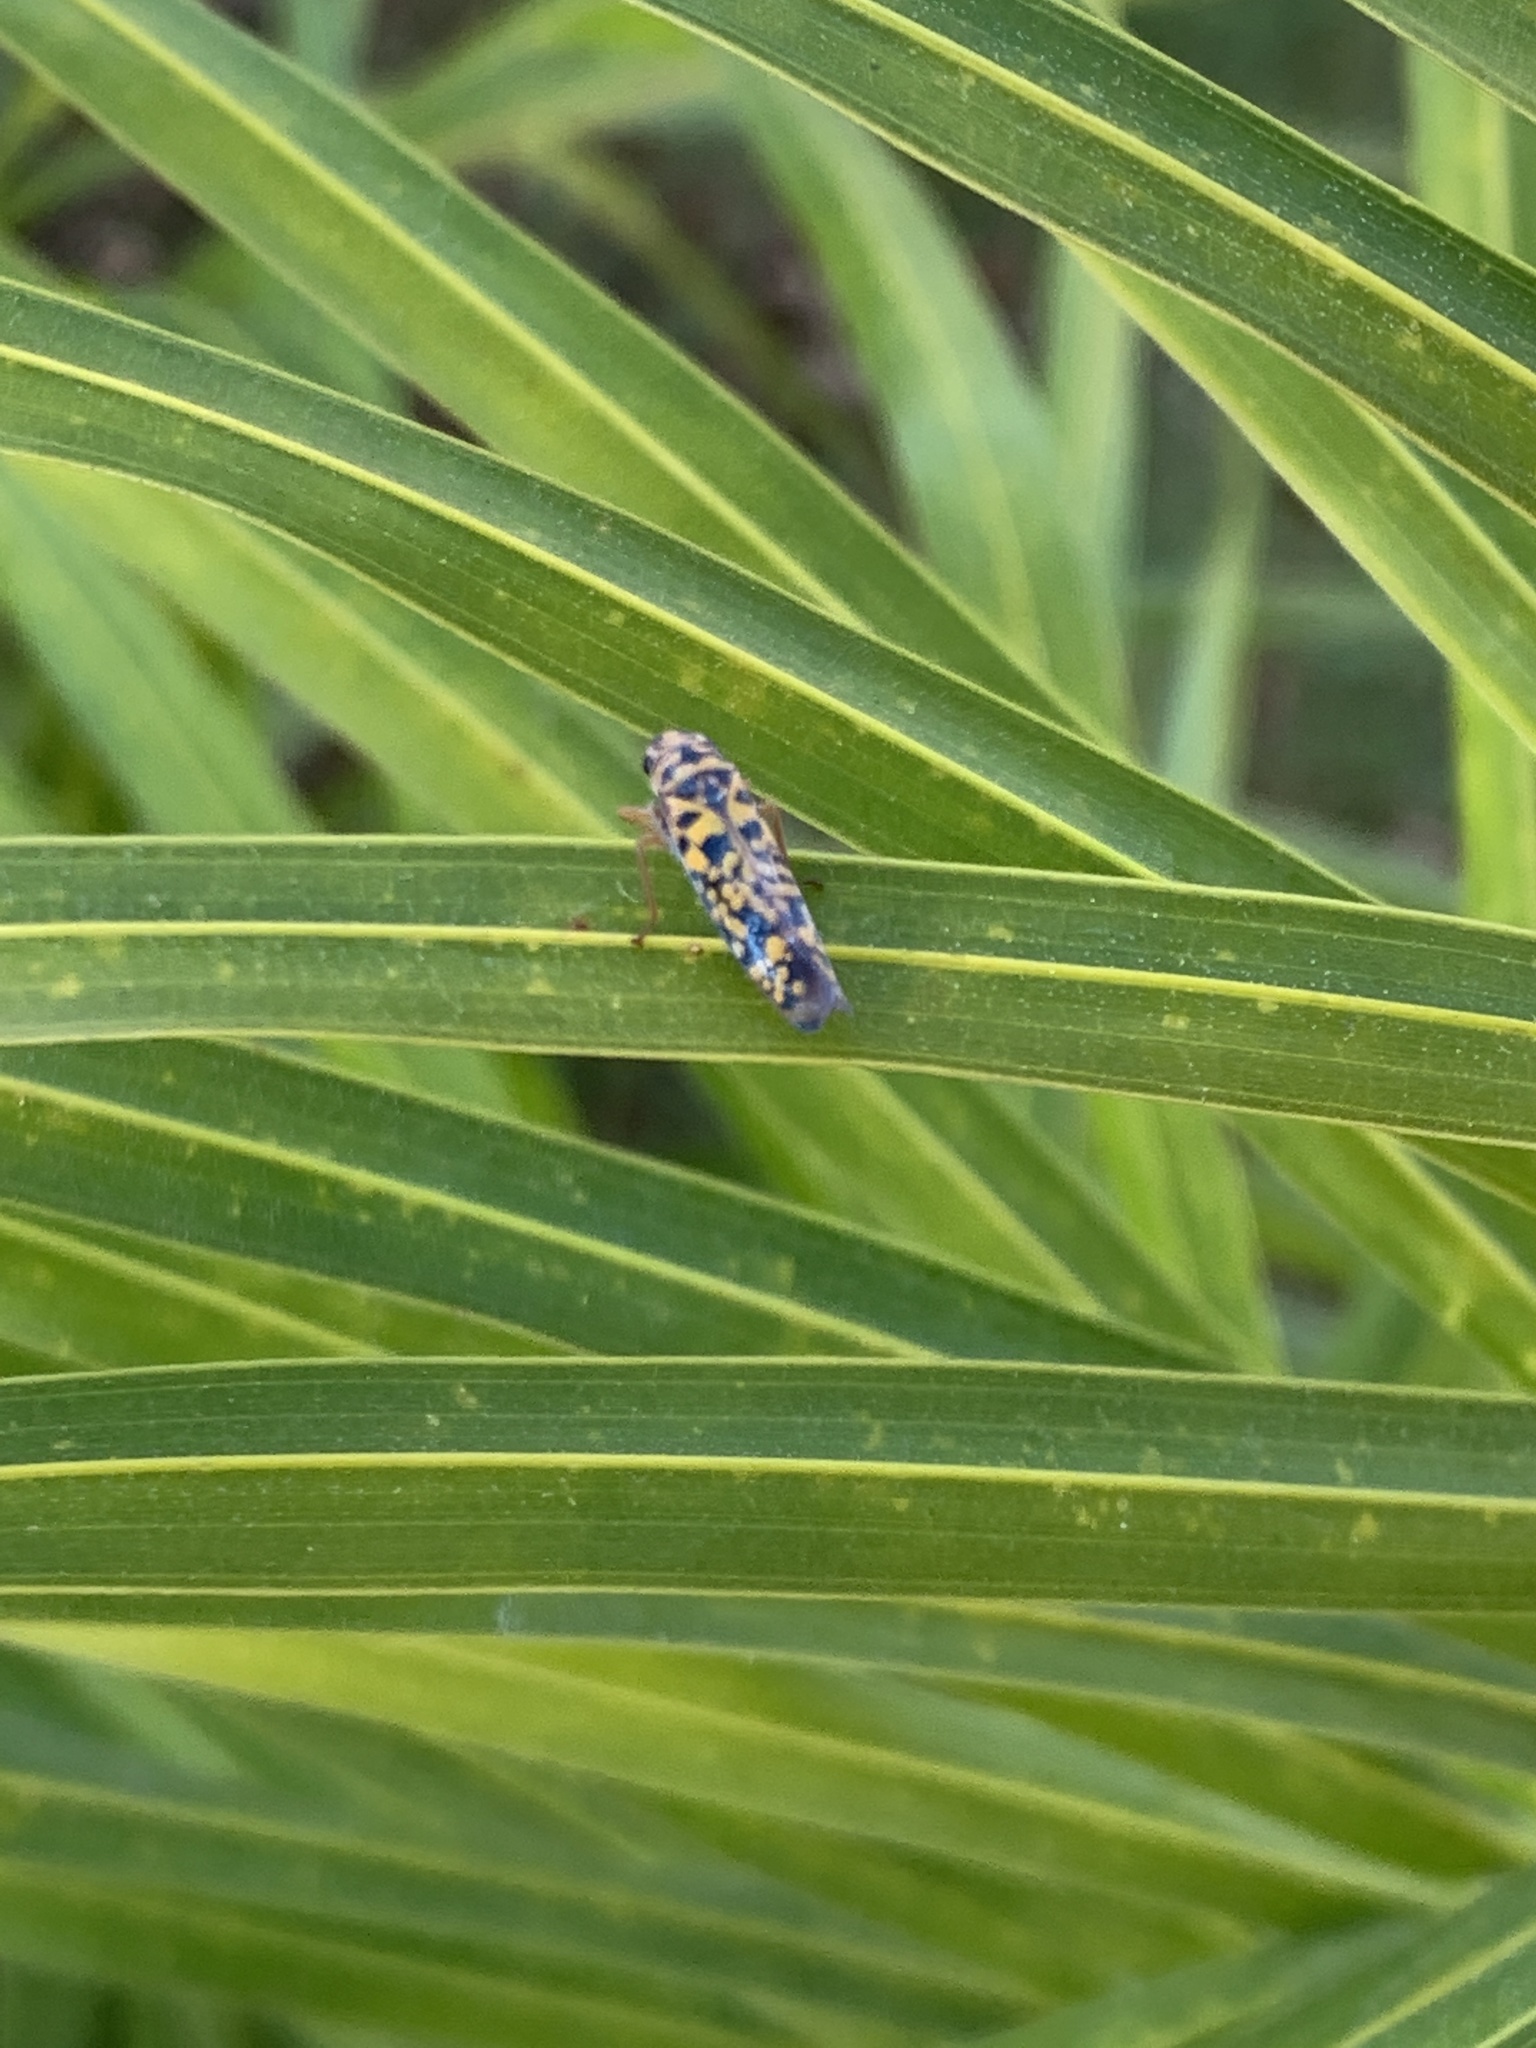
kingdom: Animalia
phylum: Arthropoda
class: Insecta
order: Hemiptera
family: Cicadellidae
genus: Pawiloma
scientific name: Pawiloma victima
